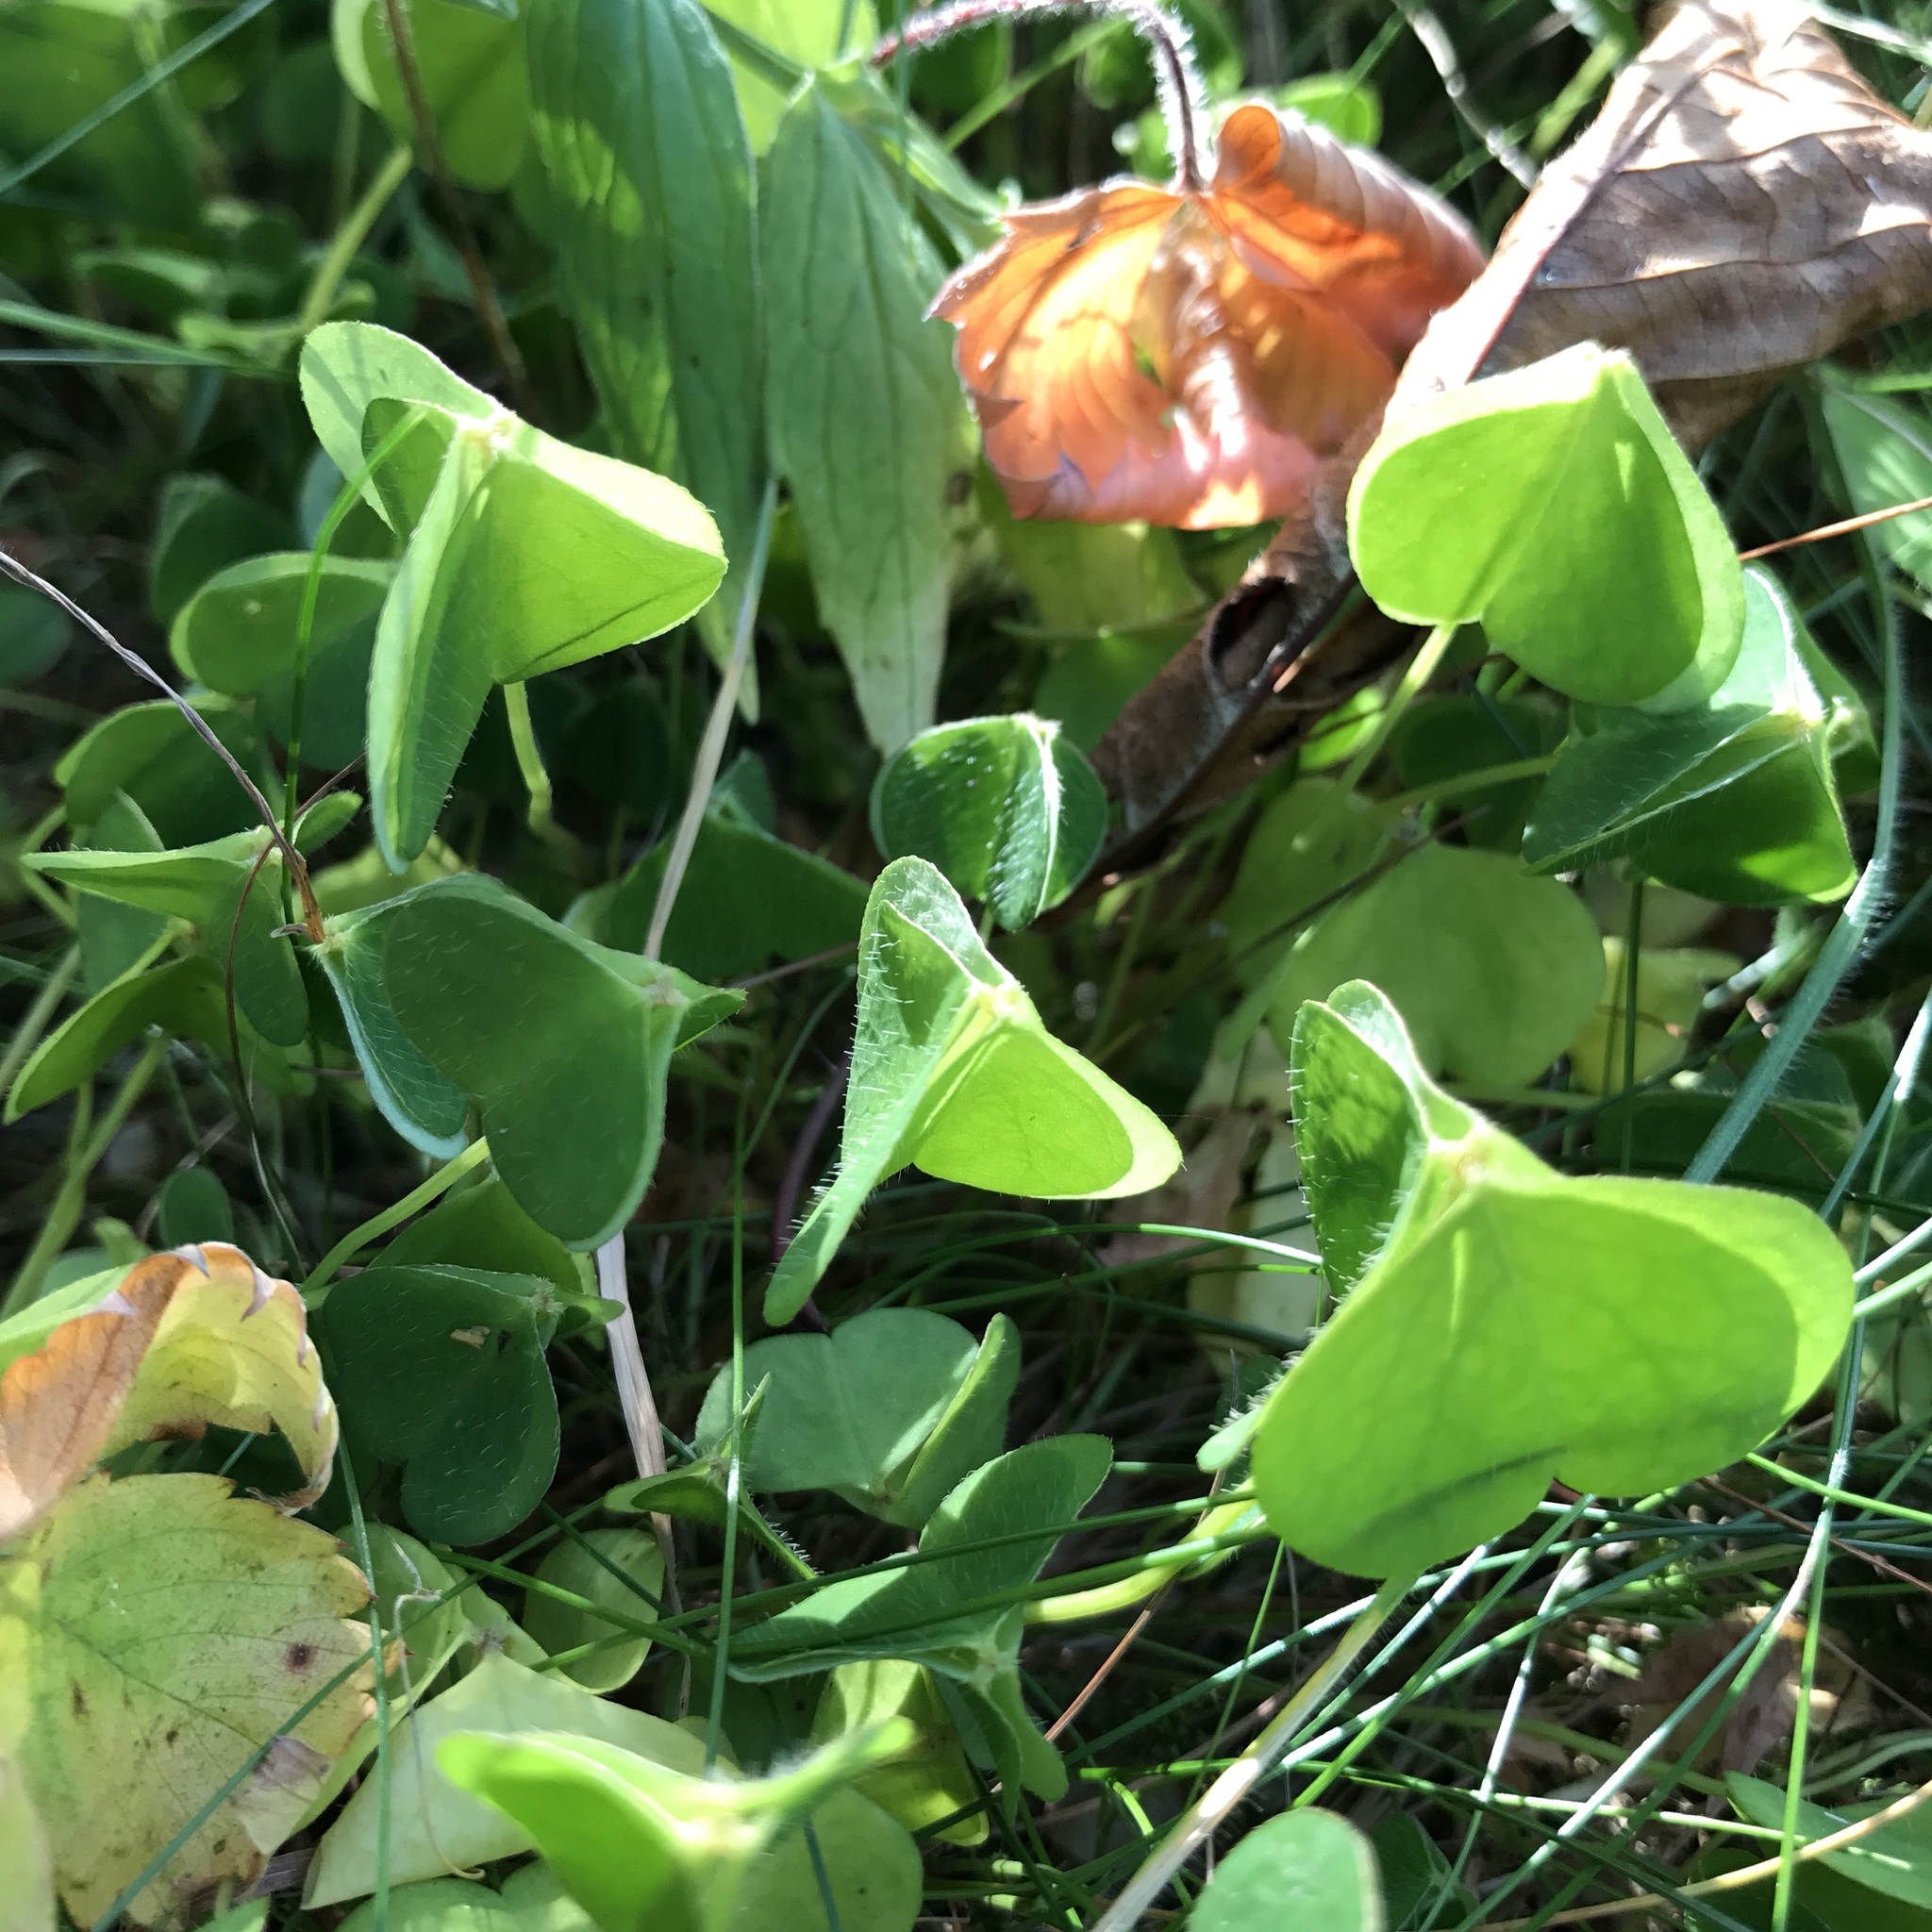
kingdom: Plantae
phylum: Tracheophyta
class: Magnoliopsida
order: Oxalidales
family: Oxalidaceae
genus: Oxalis
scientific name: Oxalis acetosella
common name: Wood-sorrel
